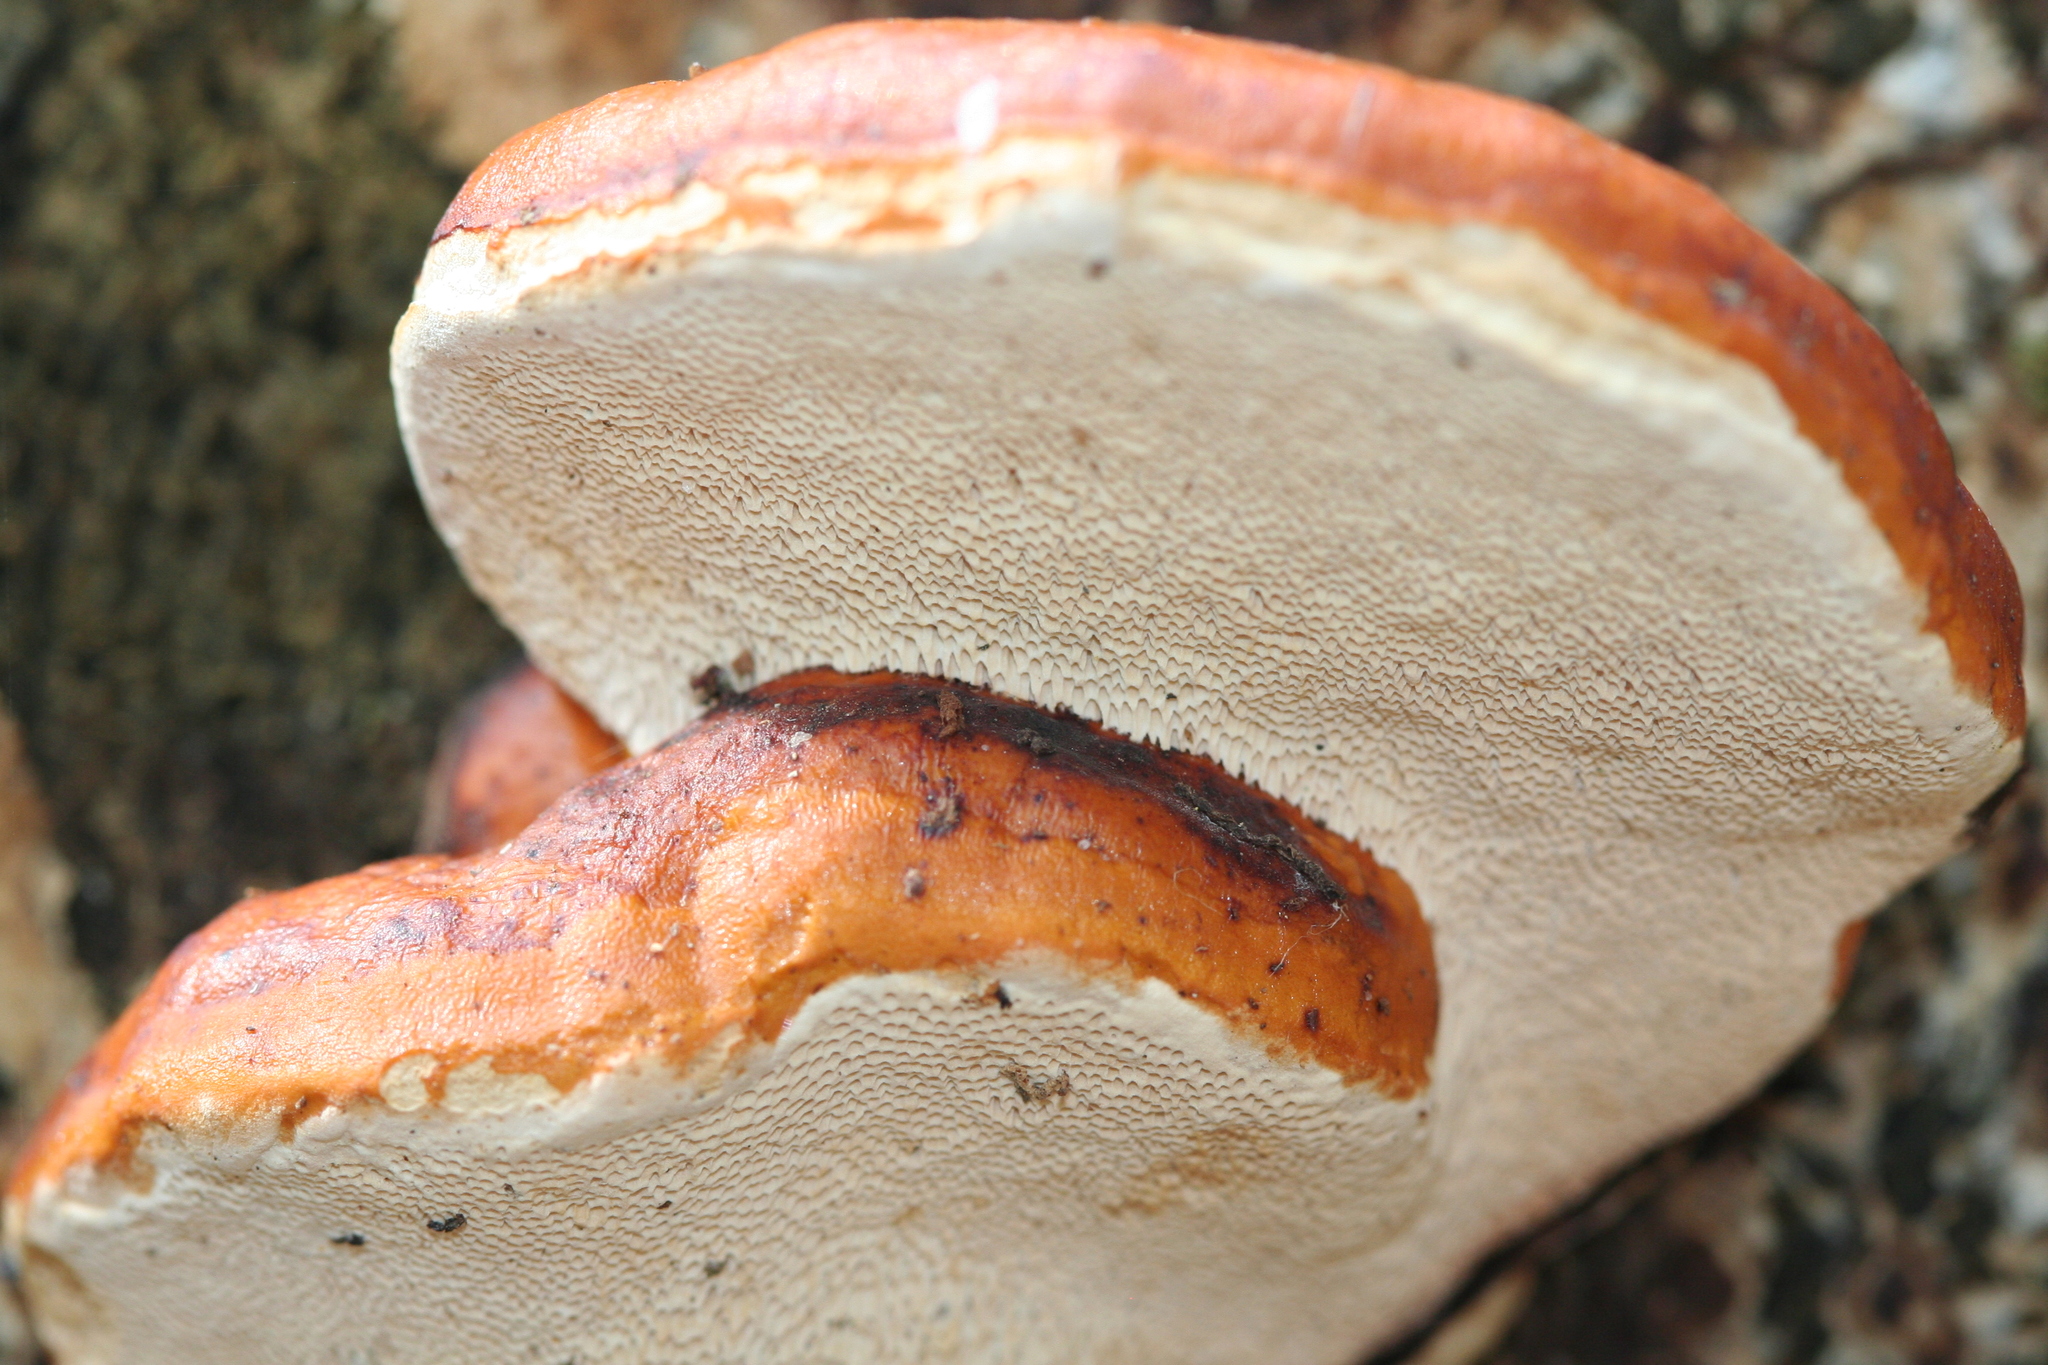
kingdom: Fungi
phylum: Basidiomycota
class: Agaricomycetes
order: Polyporales
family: Fomitopsidaceae
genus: Fomitopsis
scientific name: Fomitopsis pinicola
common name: Red-belted bracket
